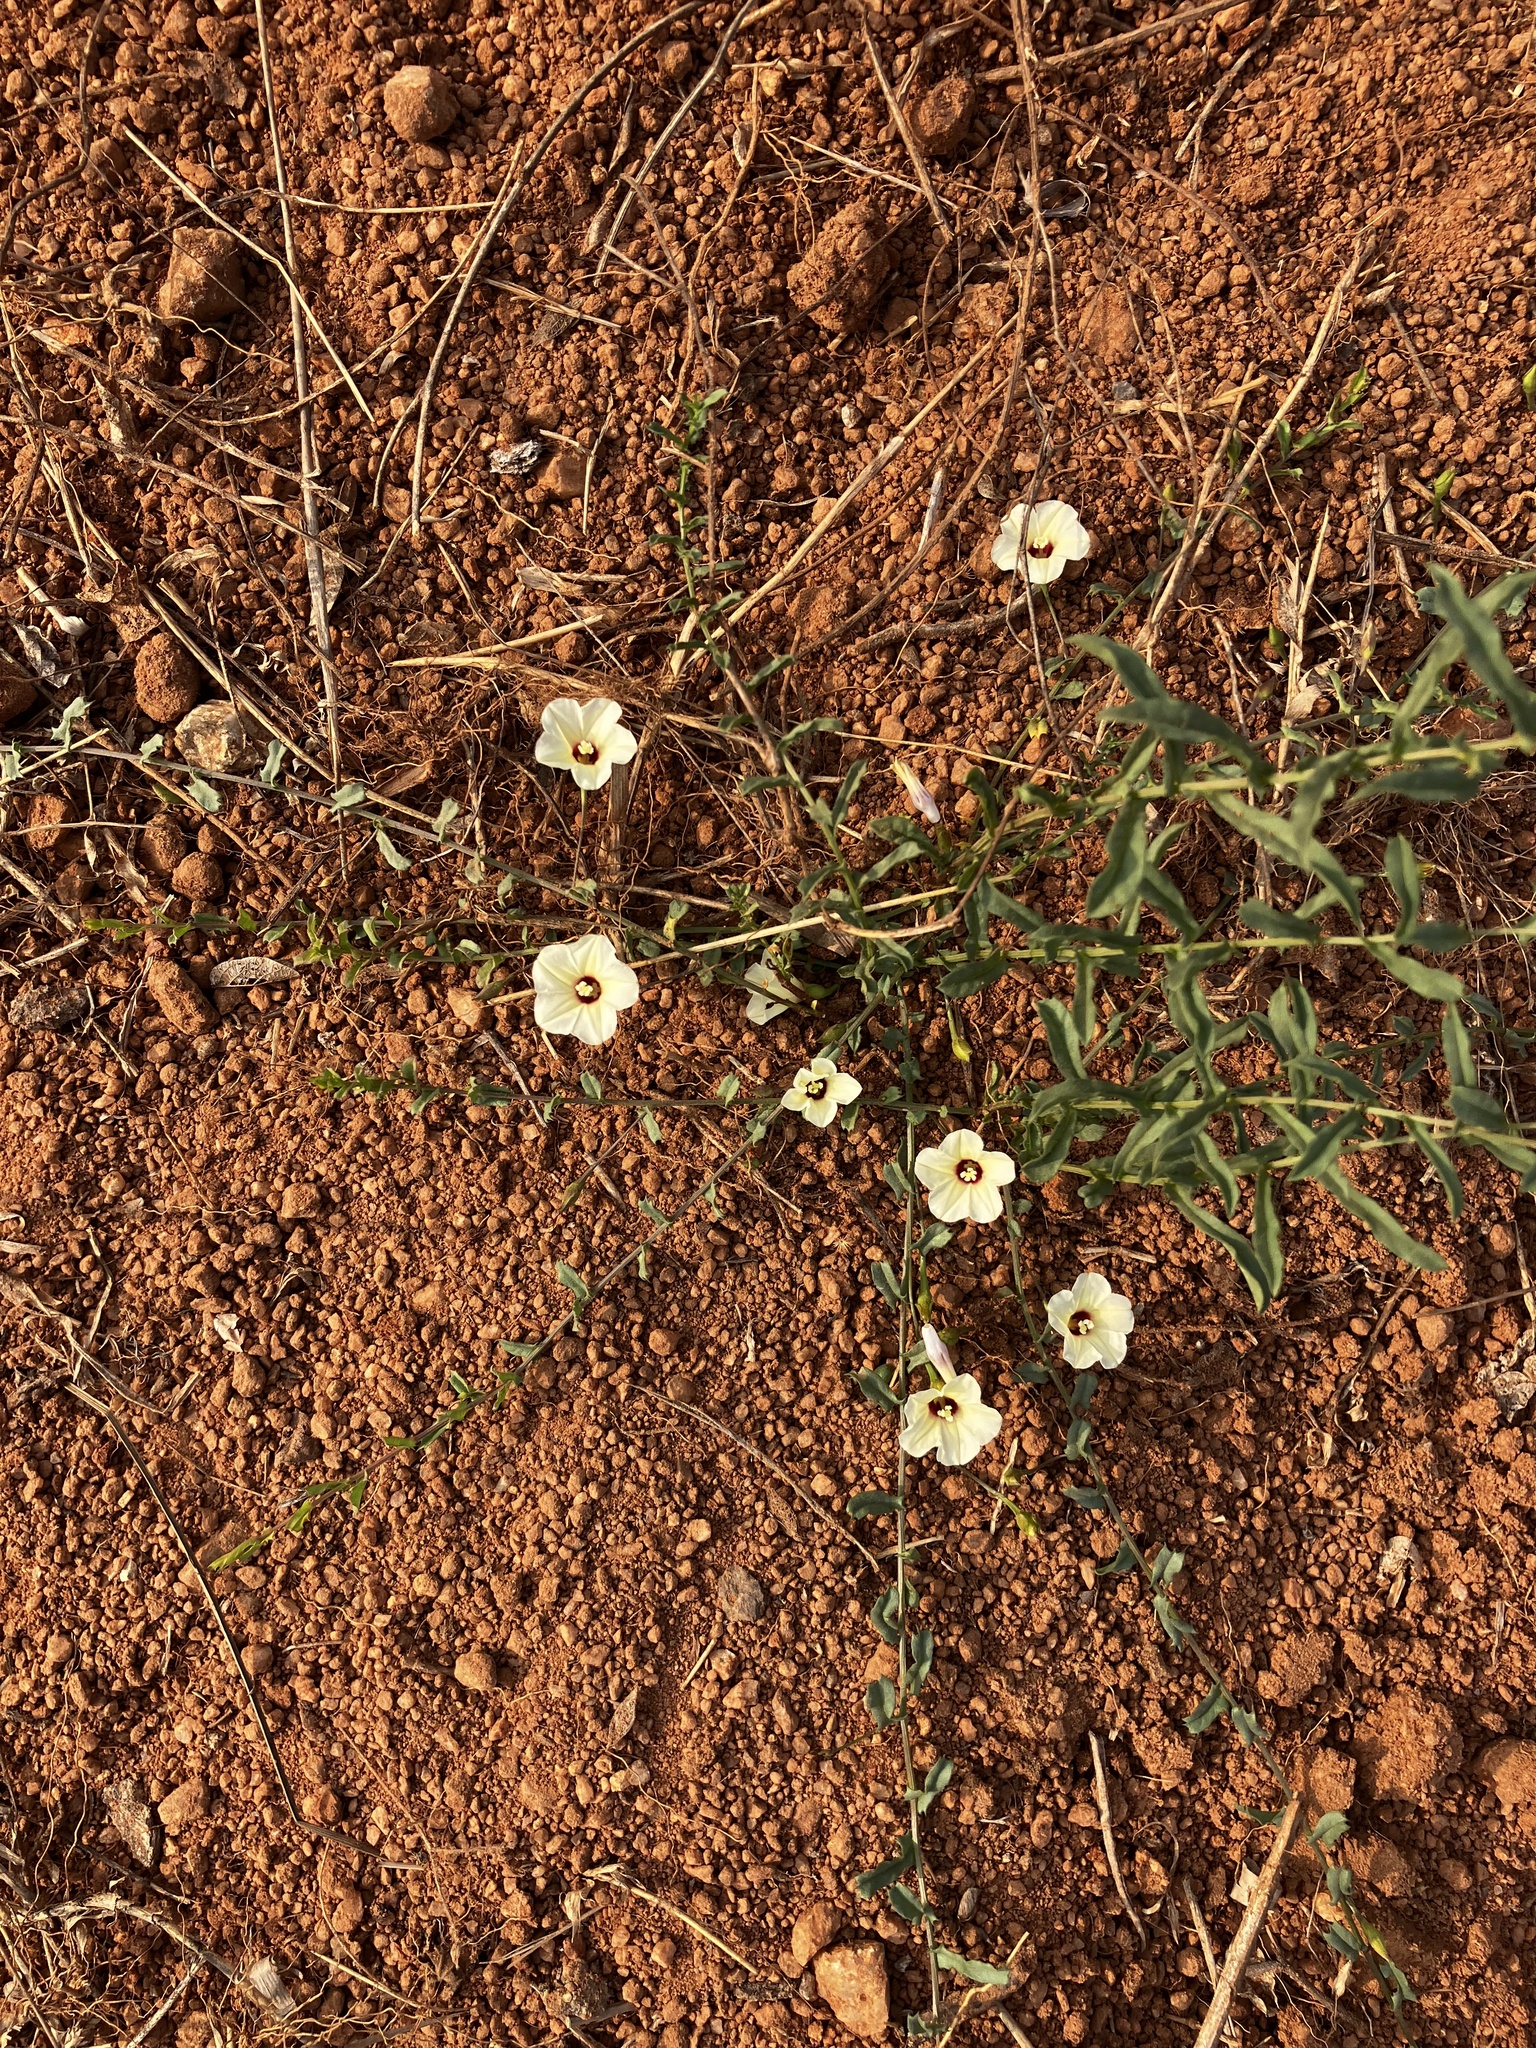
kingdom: Plantae
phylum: Tracheophyta
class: Magnoliopsida
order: Solanales
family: Convolvulaceae
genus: Xenostegia
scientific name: Xenostegia tridentata
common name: African morningvine
